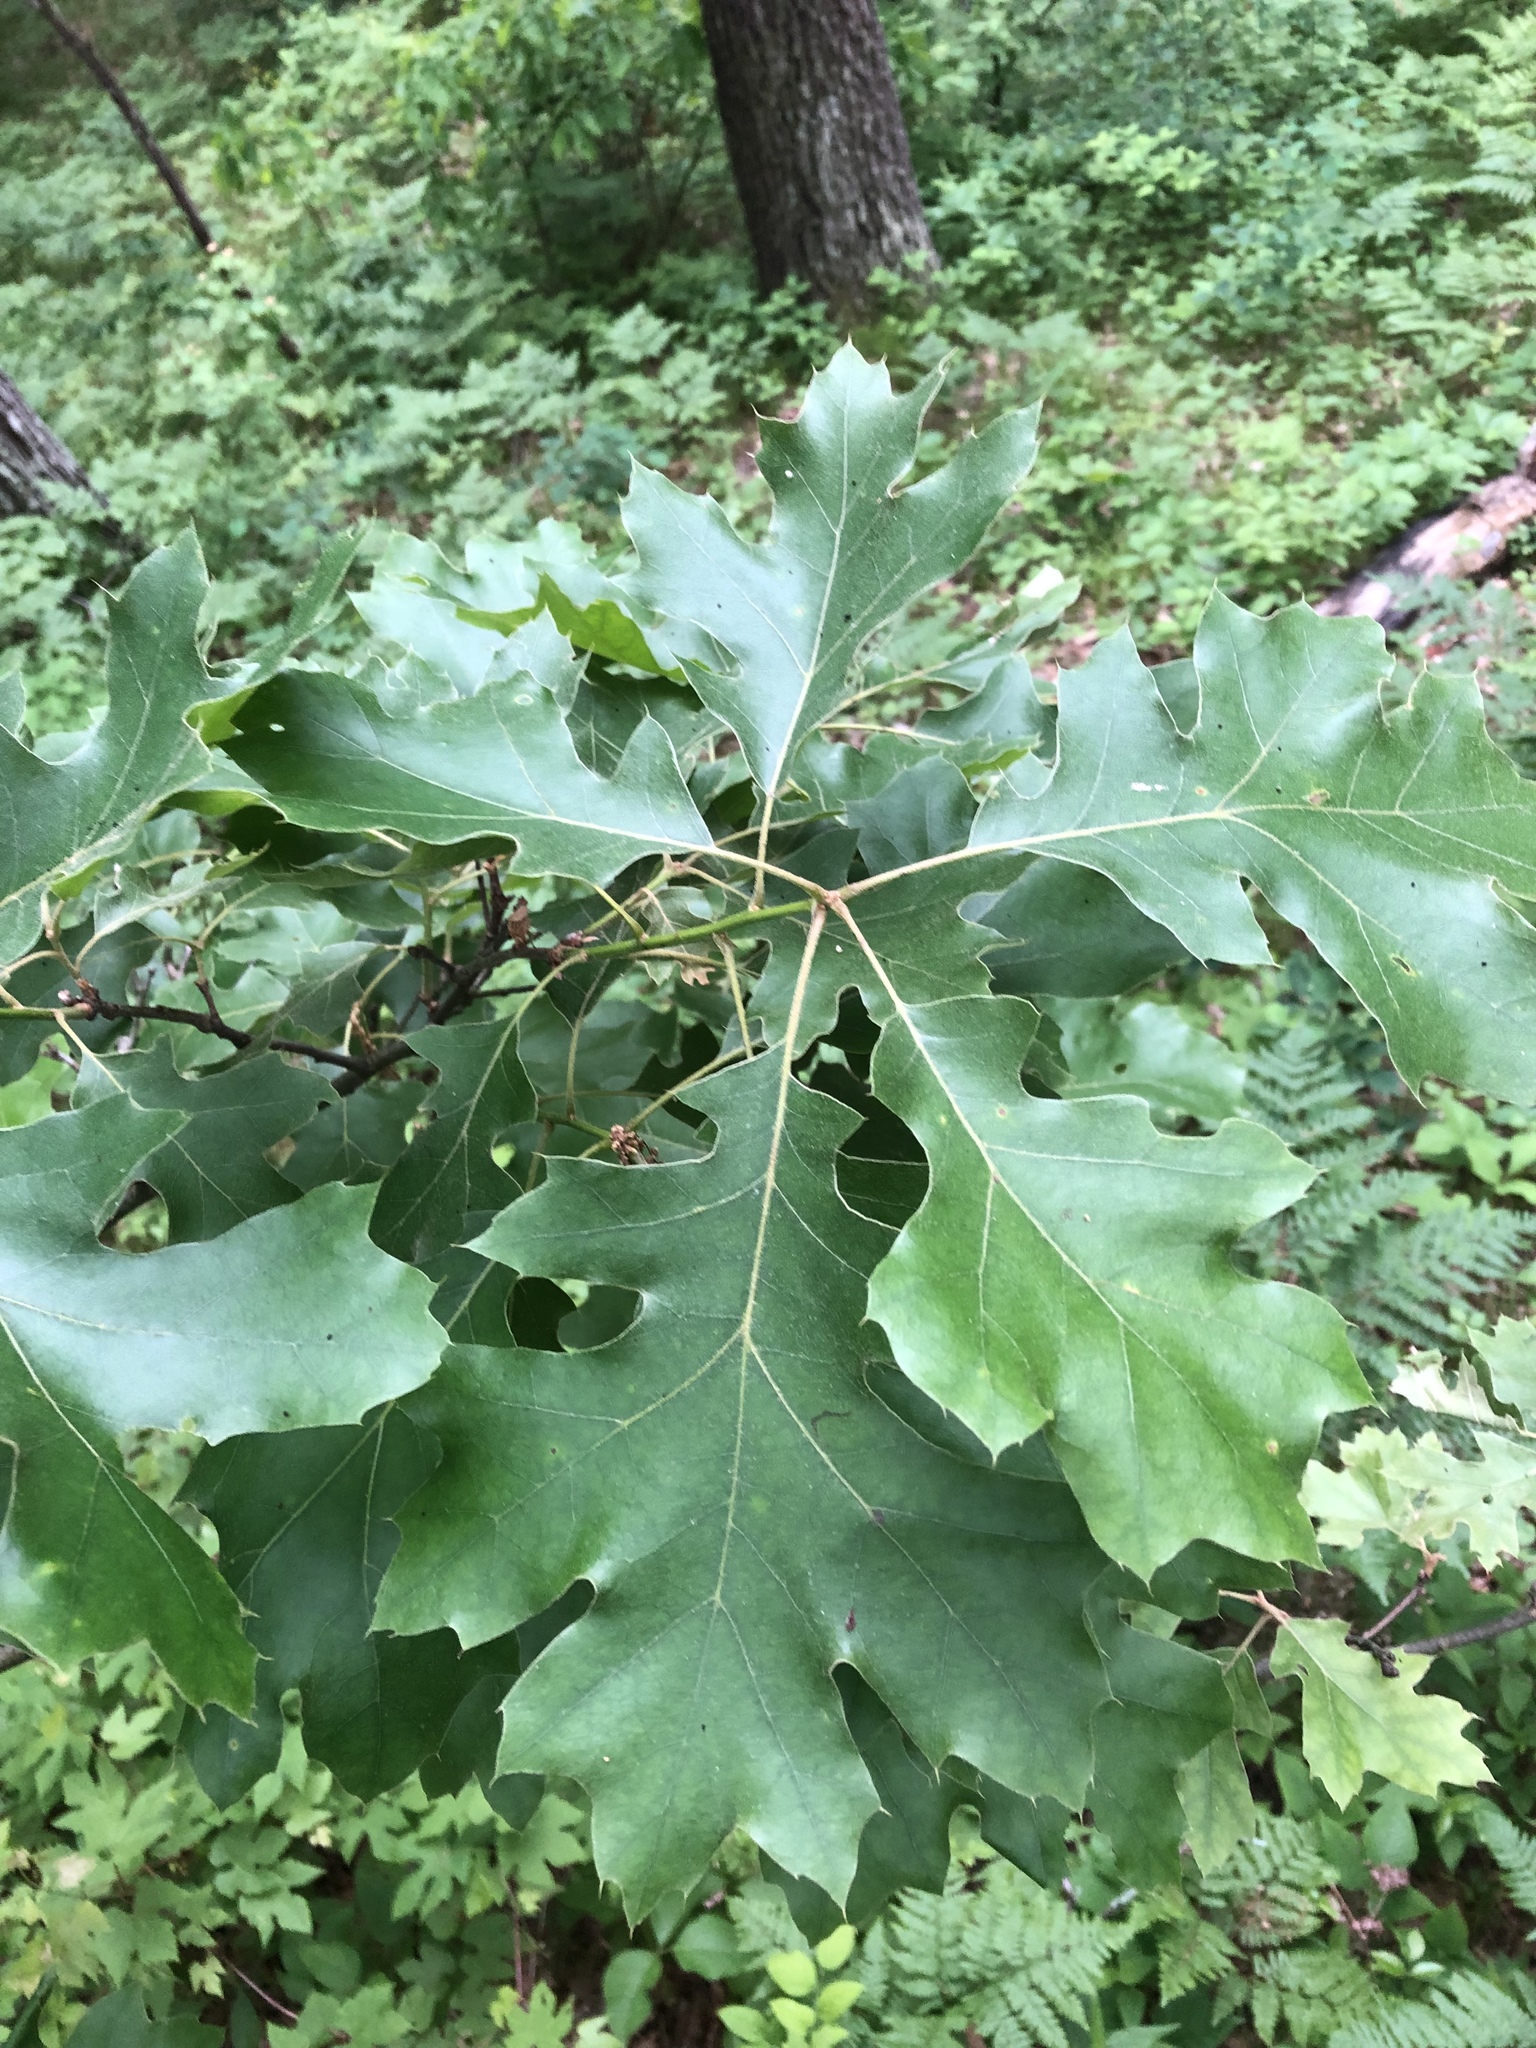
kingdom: Plantae
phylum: Tracheophyta
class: Magnoliopsida
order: Fagales
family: Fagaceae
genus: Quercus
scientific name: Quercus velutina
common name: Black oak
